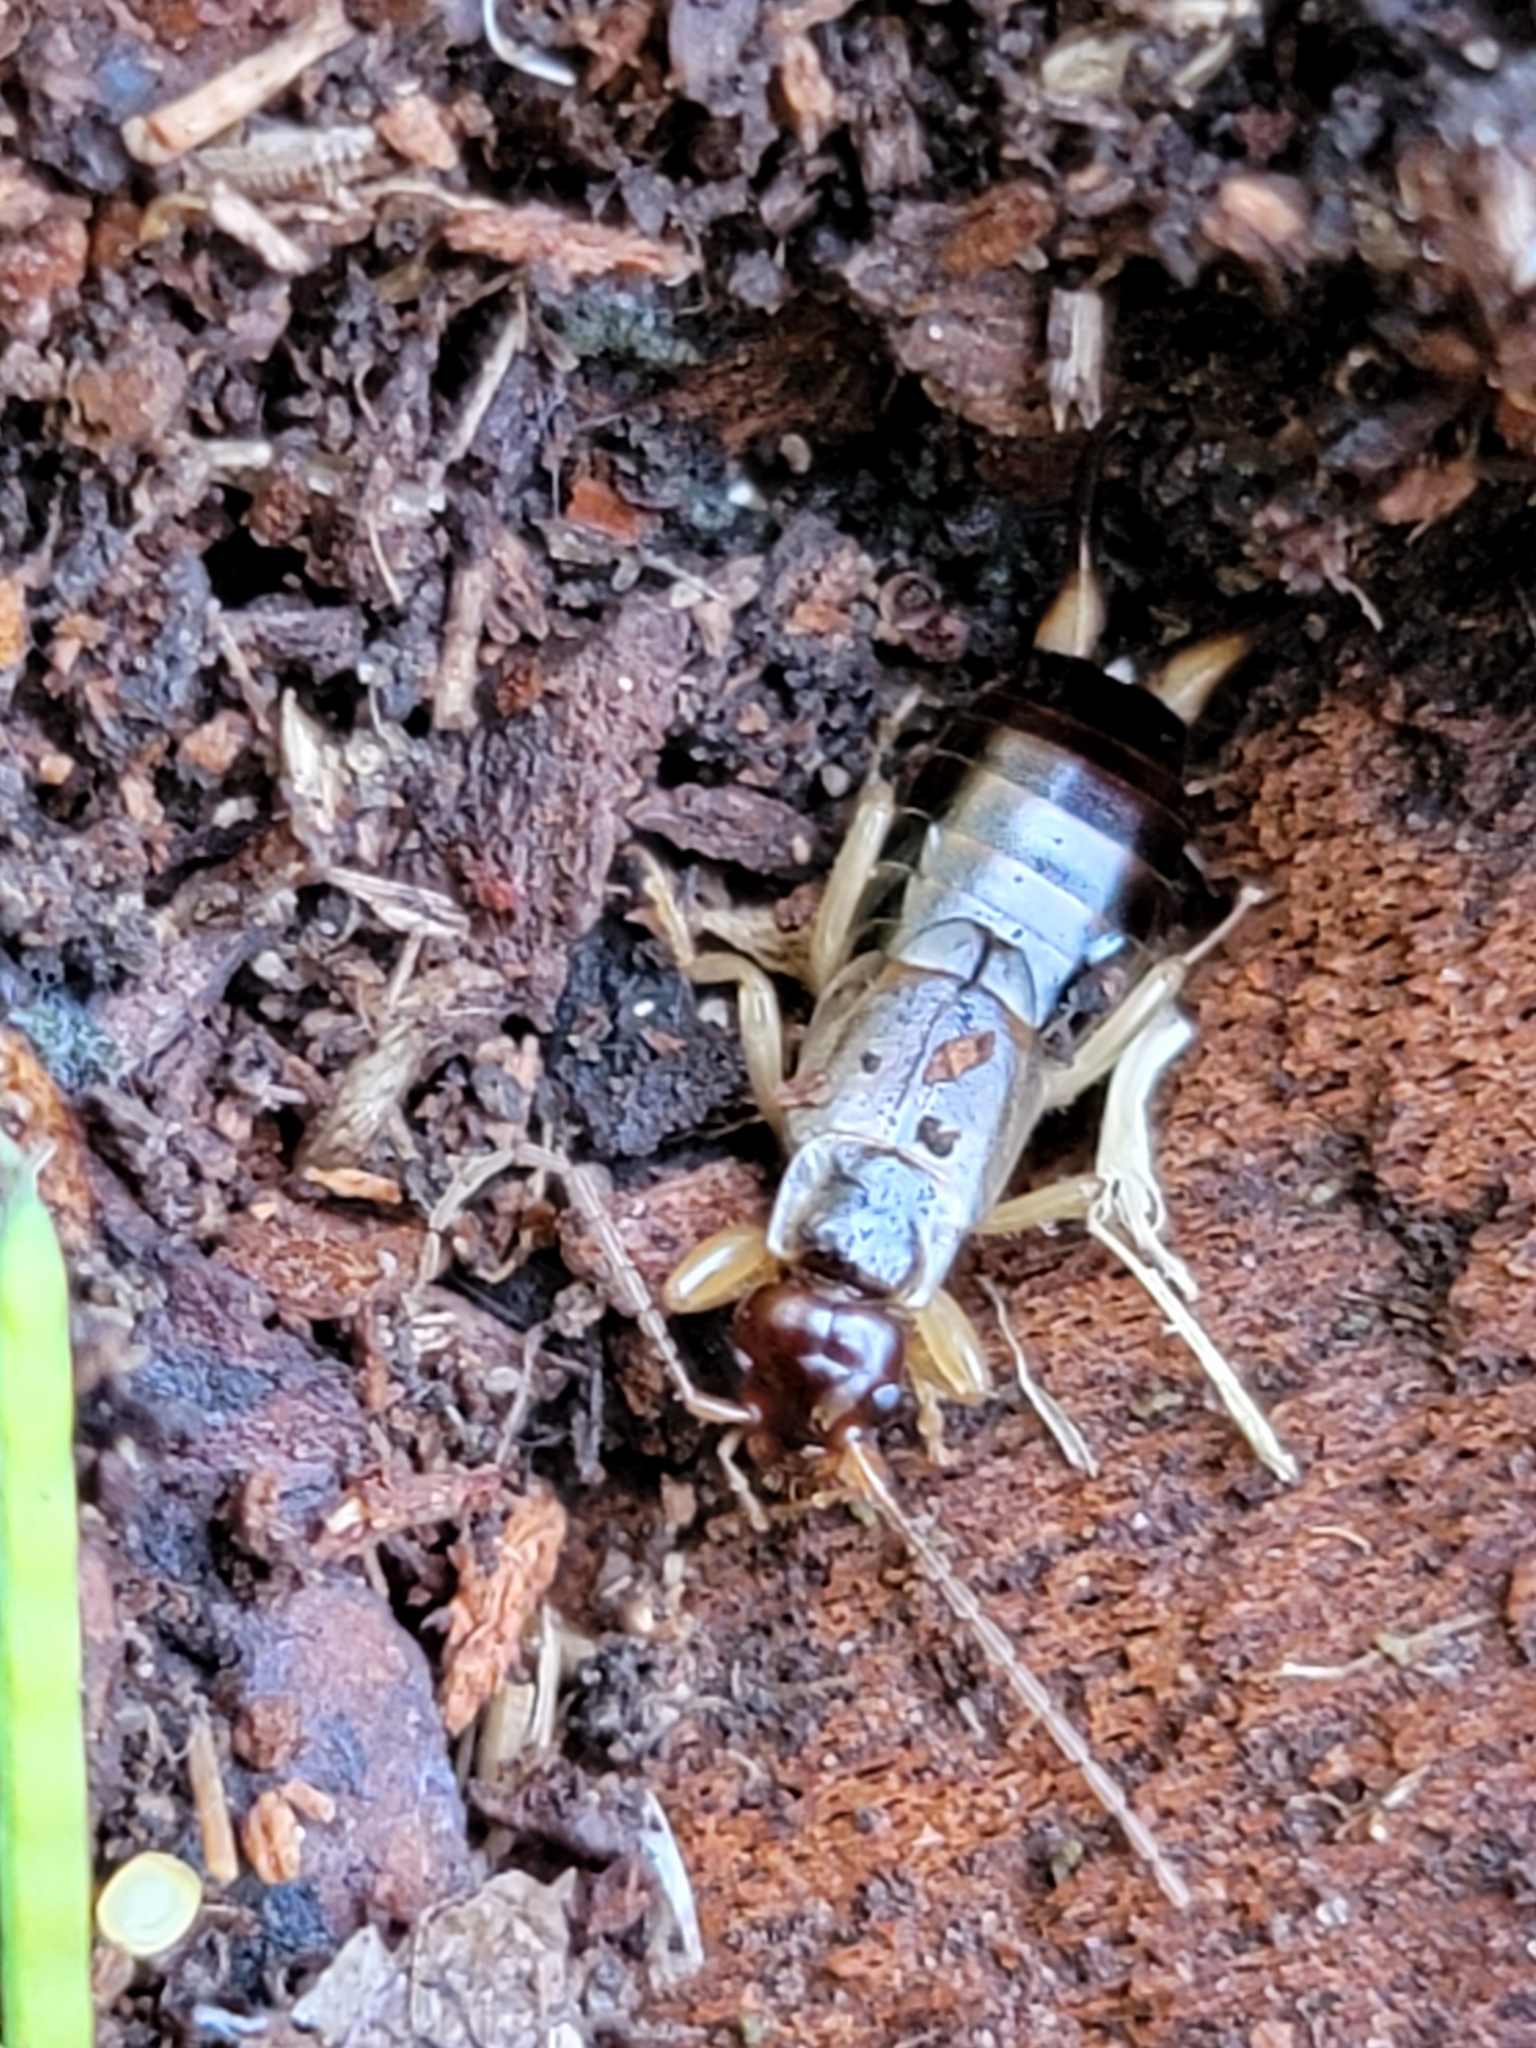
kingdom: Animalia
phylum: Arthropoda
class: Insecta
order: Dermaptera
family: Forficulidae
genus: Forficula
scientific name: Forficula
